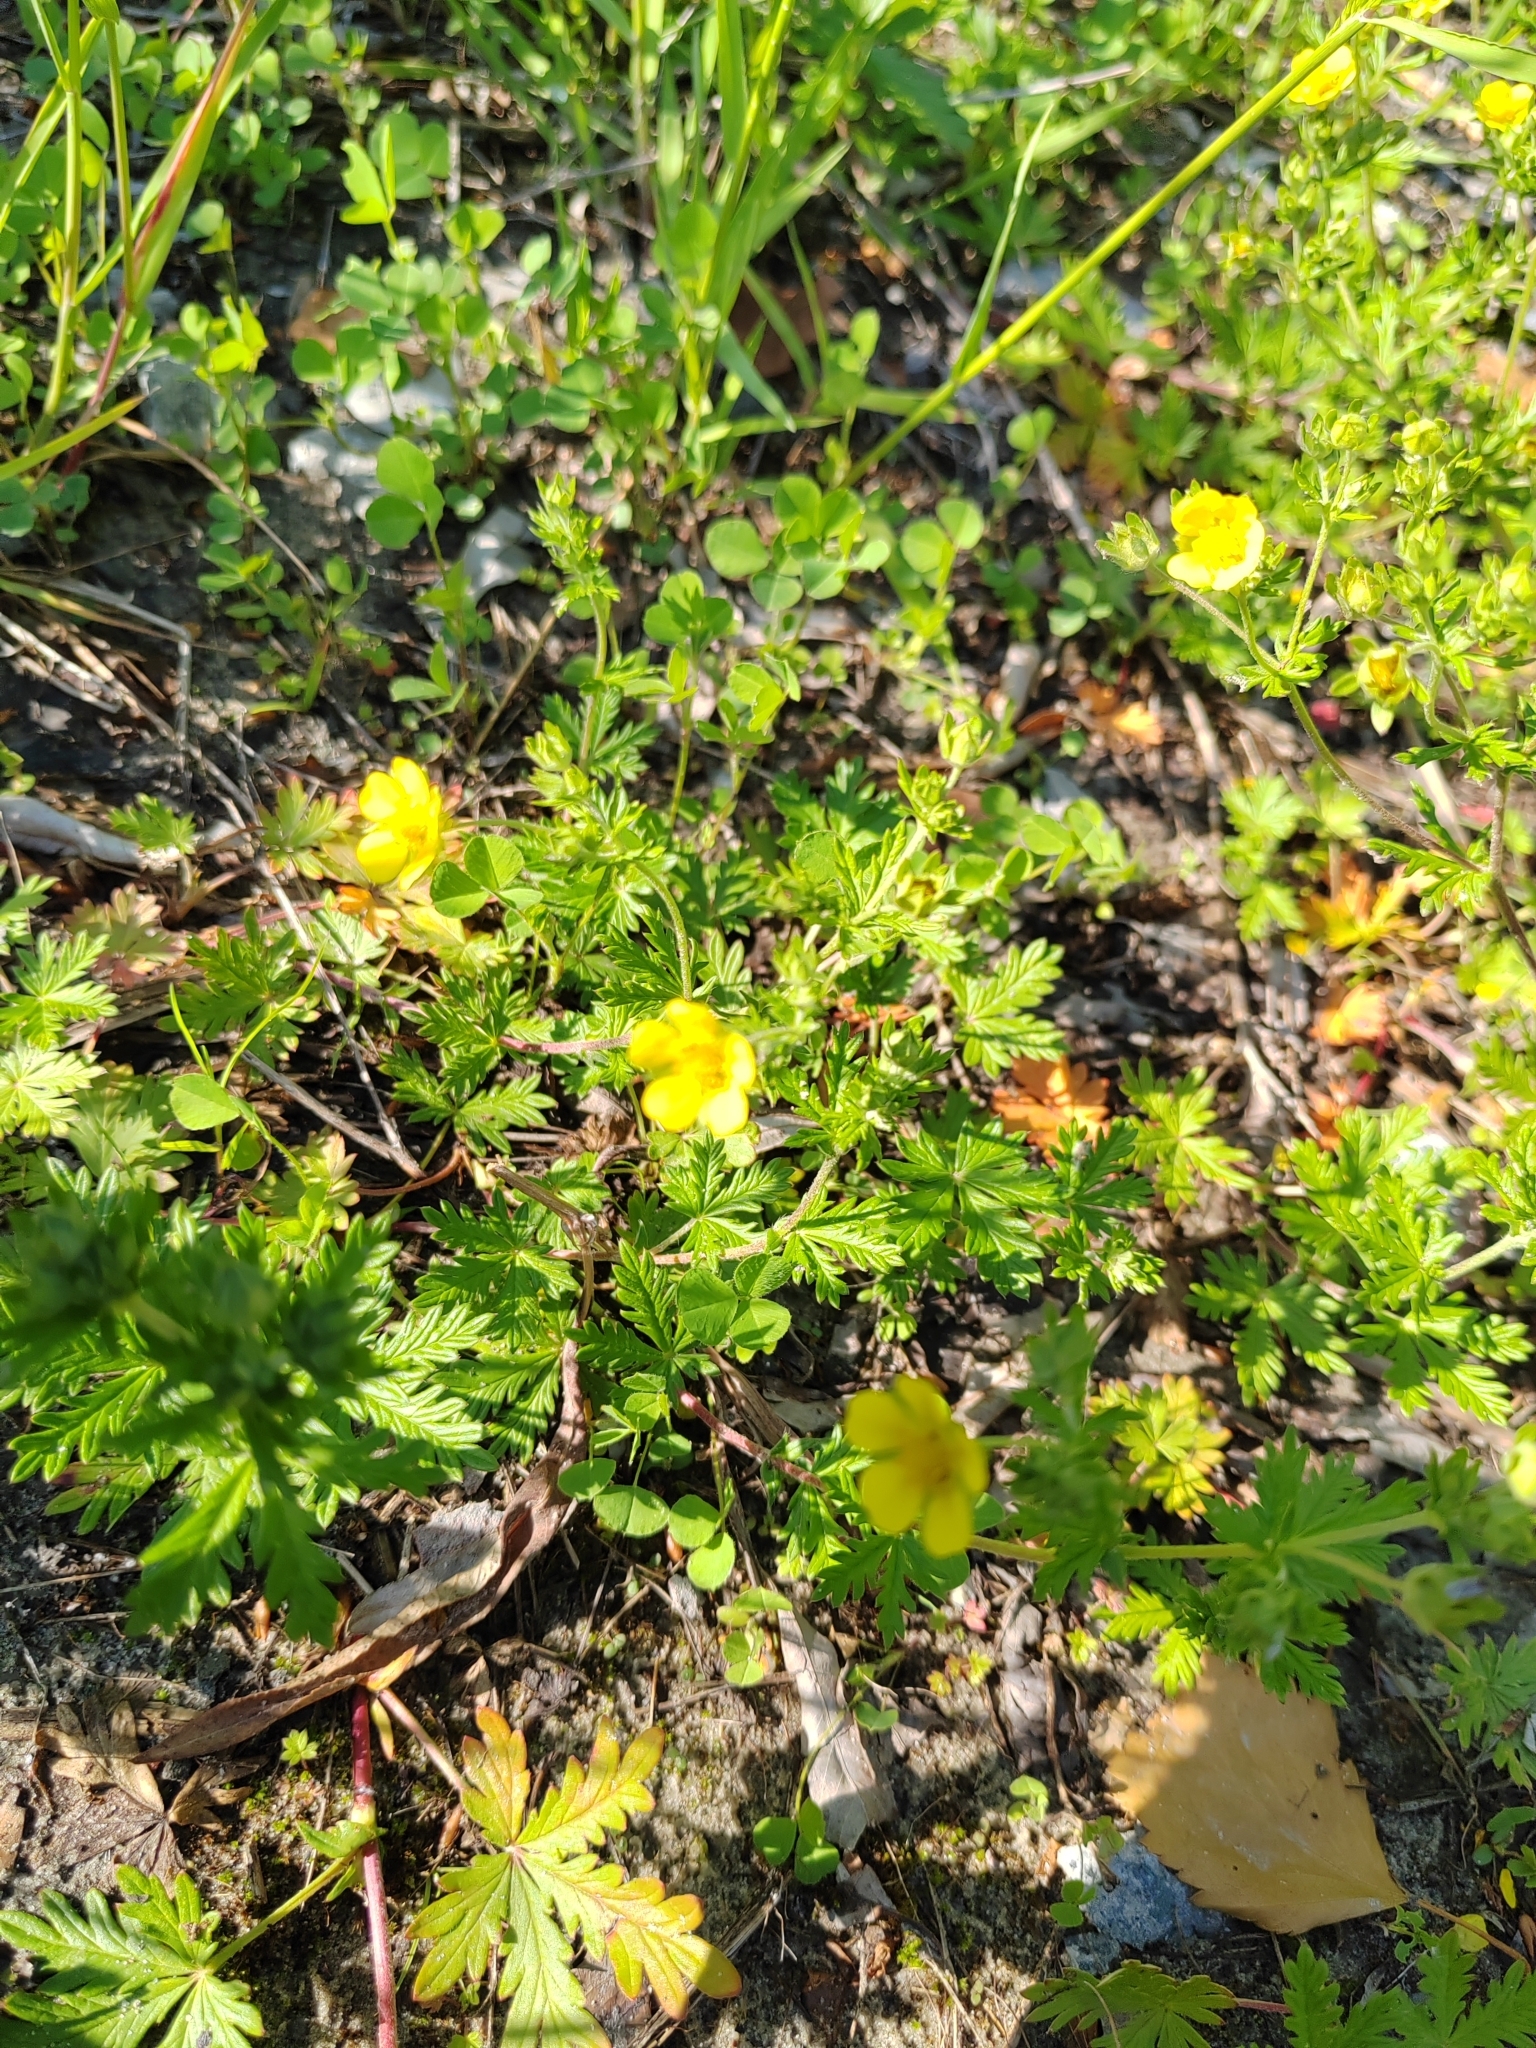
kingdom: Plantae
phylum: Tracheophyta
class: Magnoliopsida
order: Rosales
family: Rosaceae
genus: Potentilla
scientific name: Potentilla argentea
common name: Hoary cinquefoil
